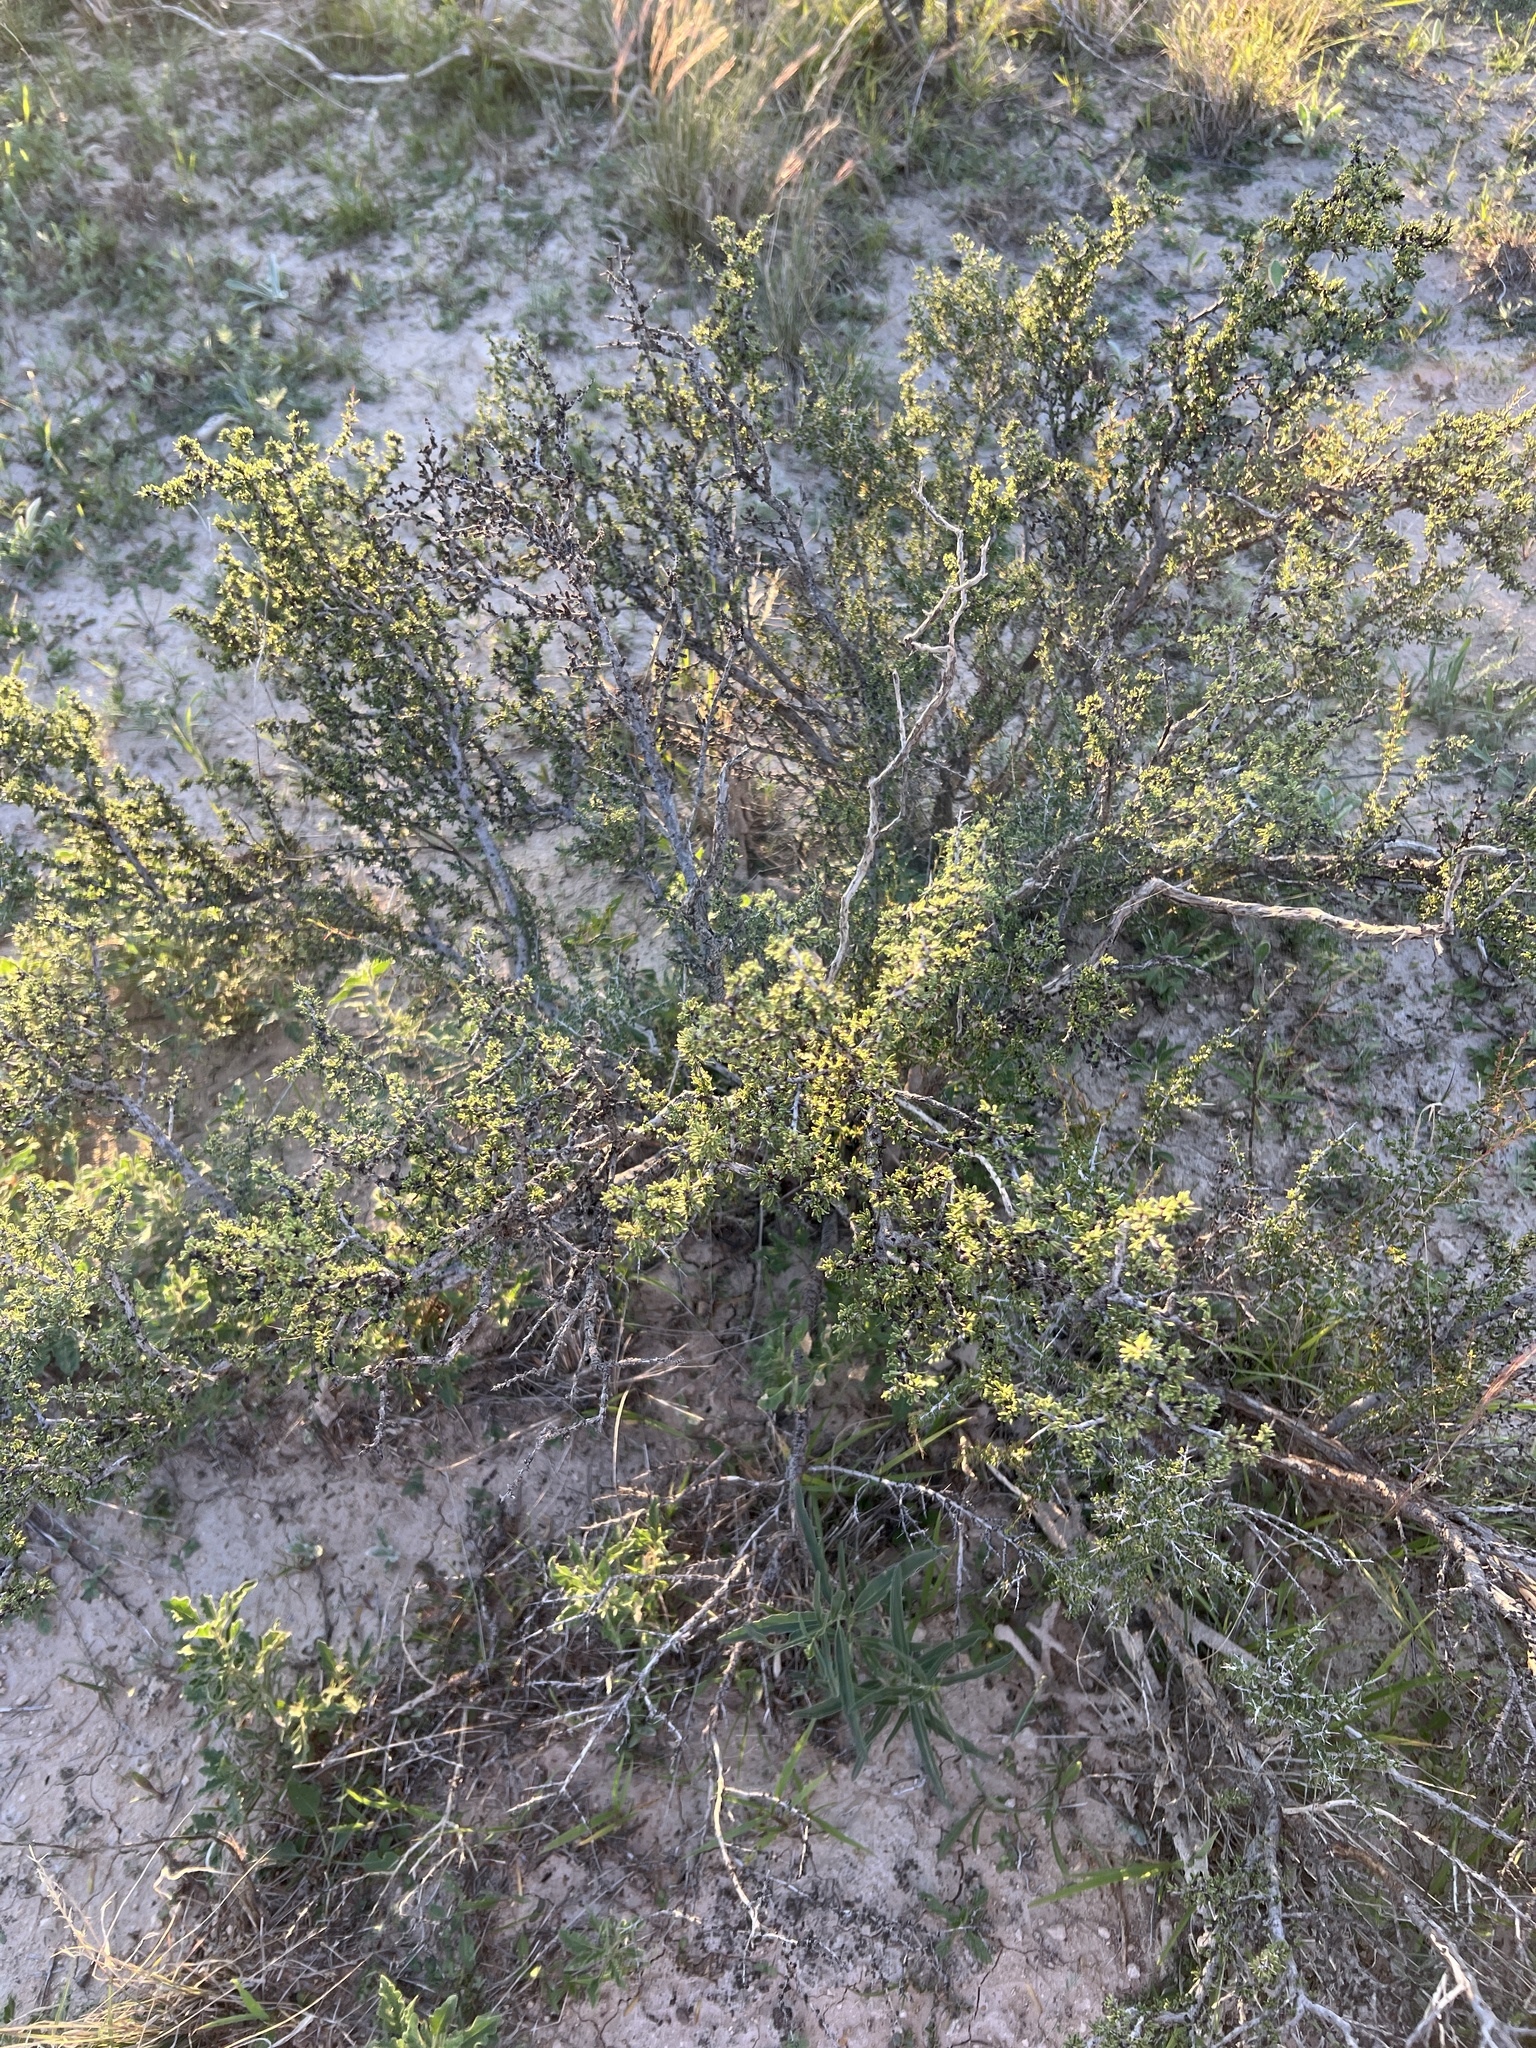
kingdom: Plantae
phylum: Tracheophyta
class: Magnoliopsida
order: Rosales
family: Rhamnaceae
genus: Condalia
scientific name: Condalia ericoides
